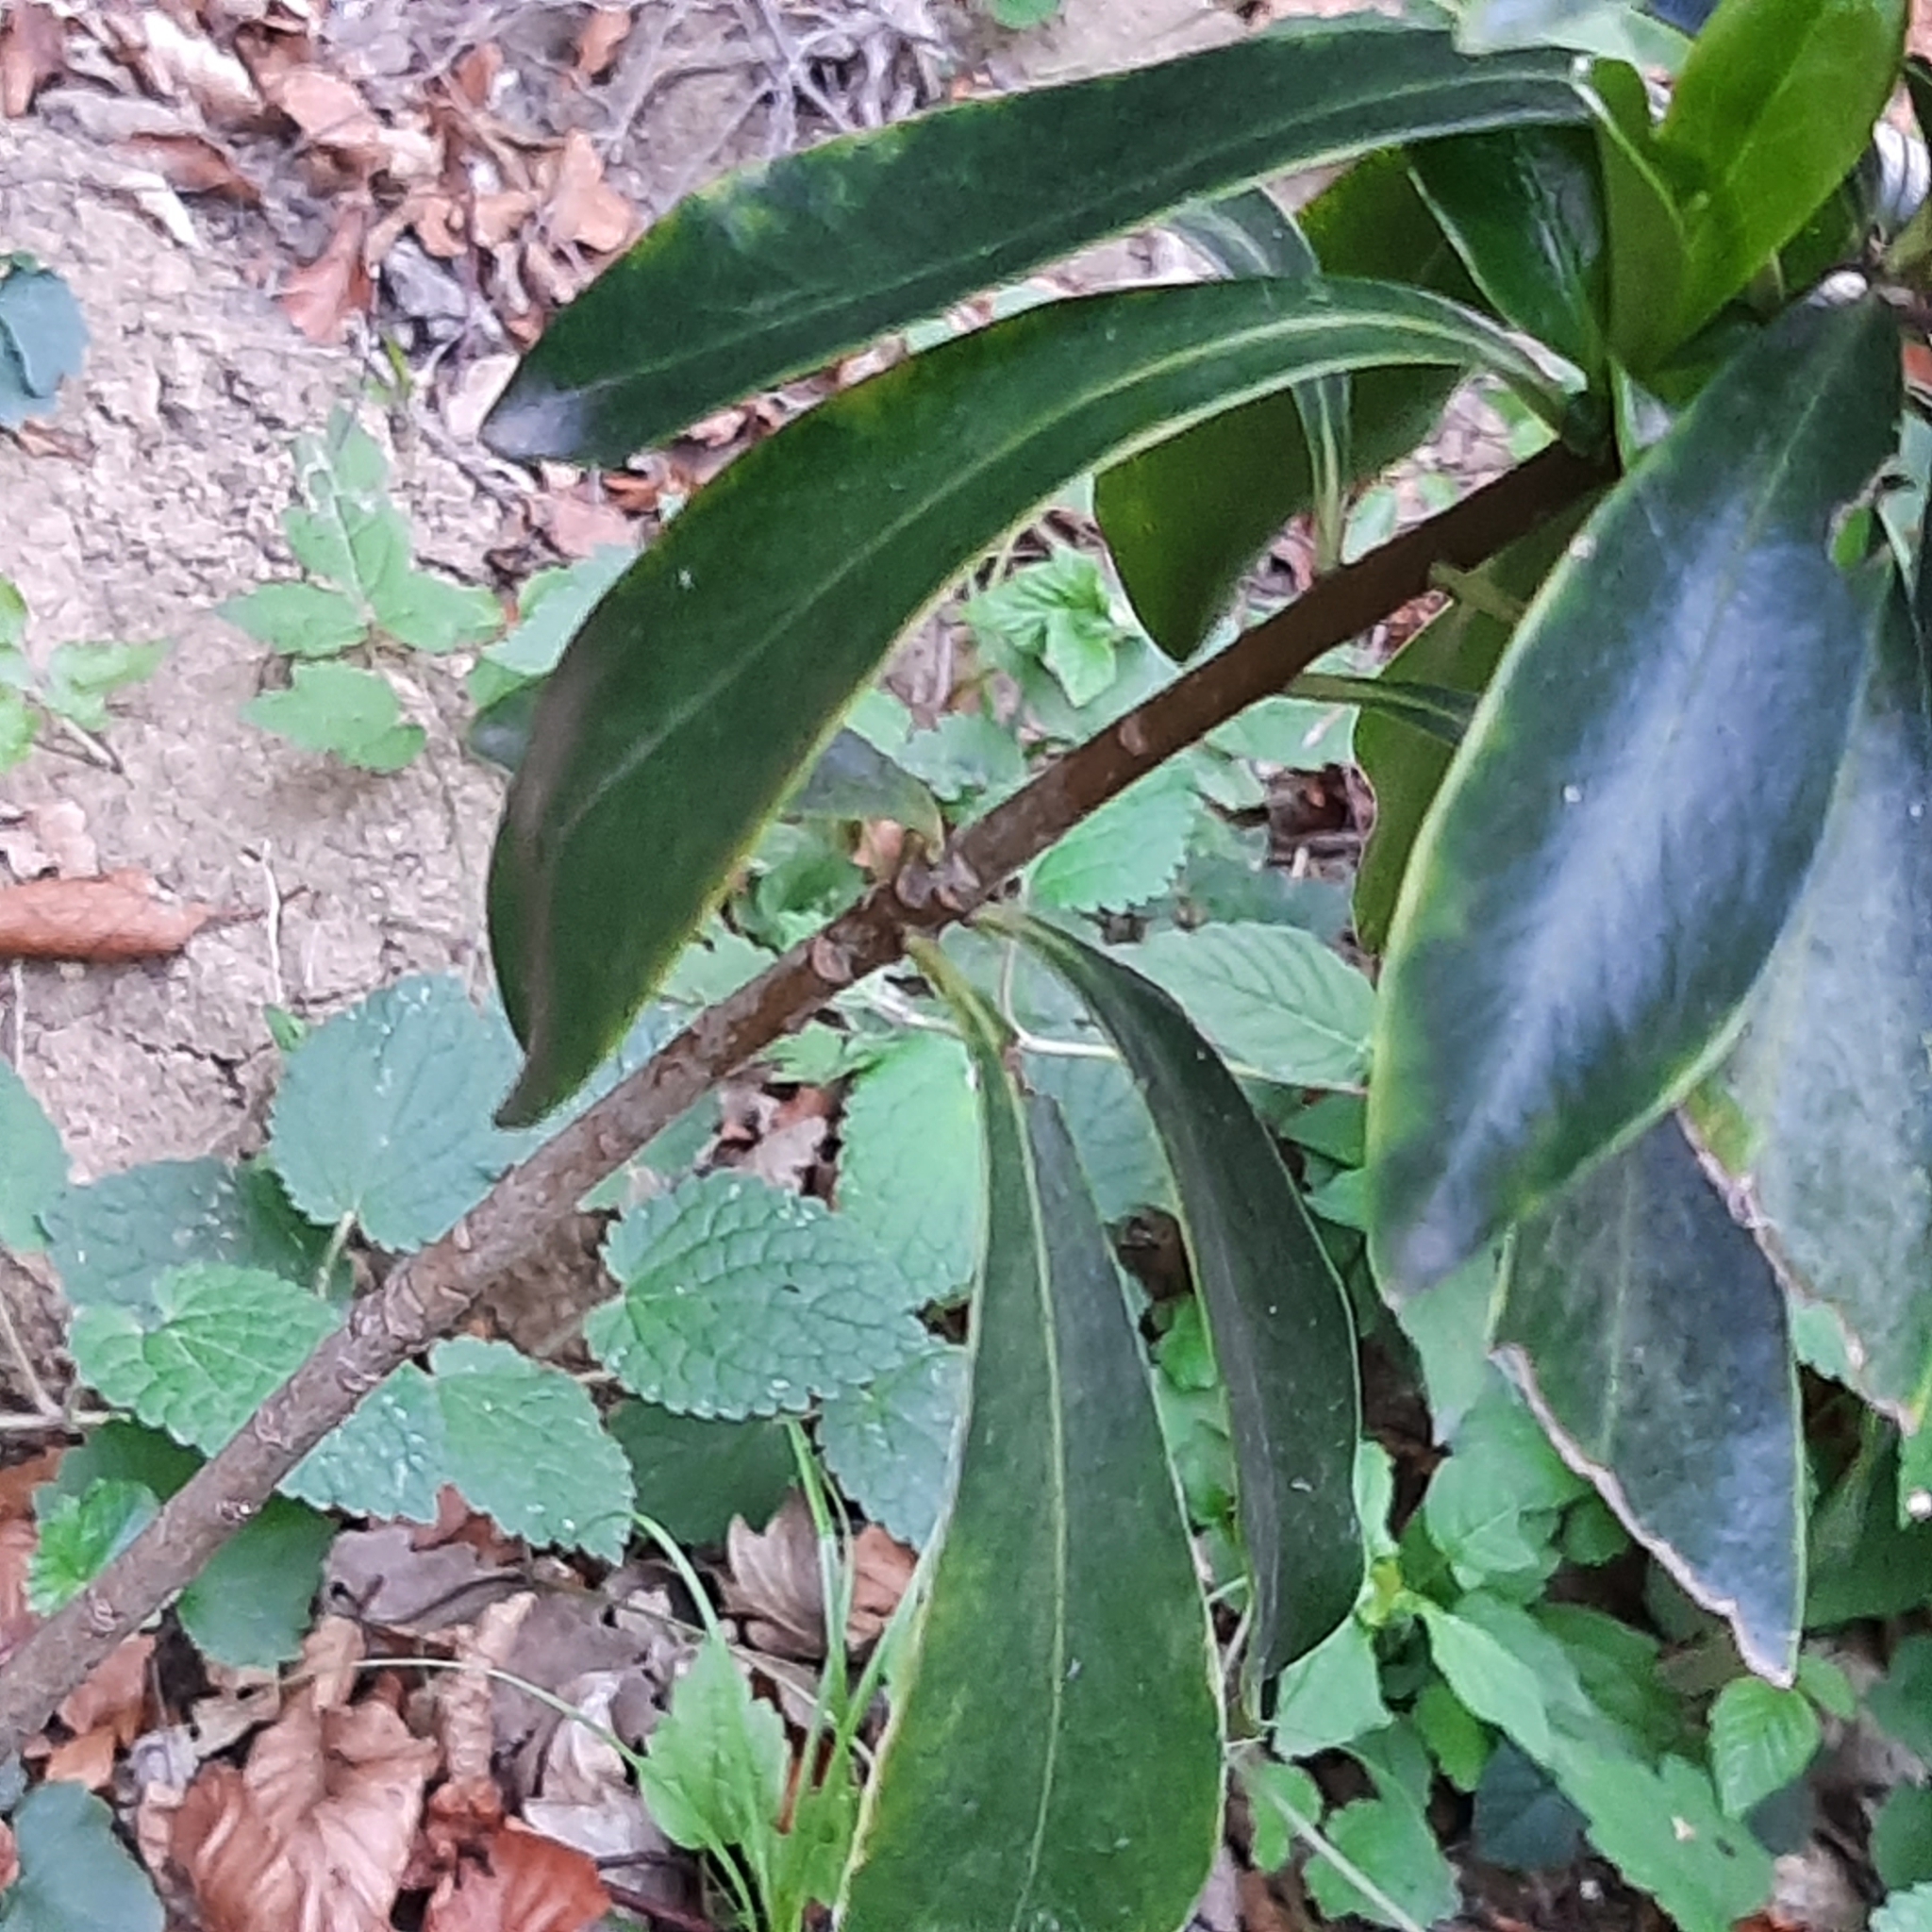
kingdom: Plantae
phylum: Tracheophyta
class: Magnoliopsida
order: Malvales
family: Thymelaeaceae
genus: Daphne
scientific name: Daphne laureola
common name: Spurge-laurel
